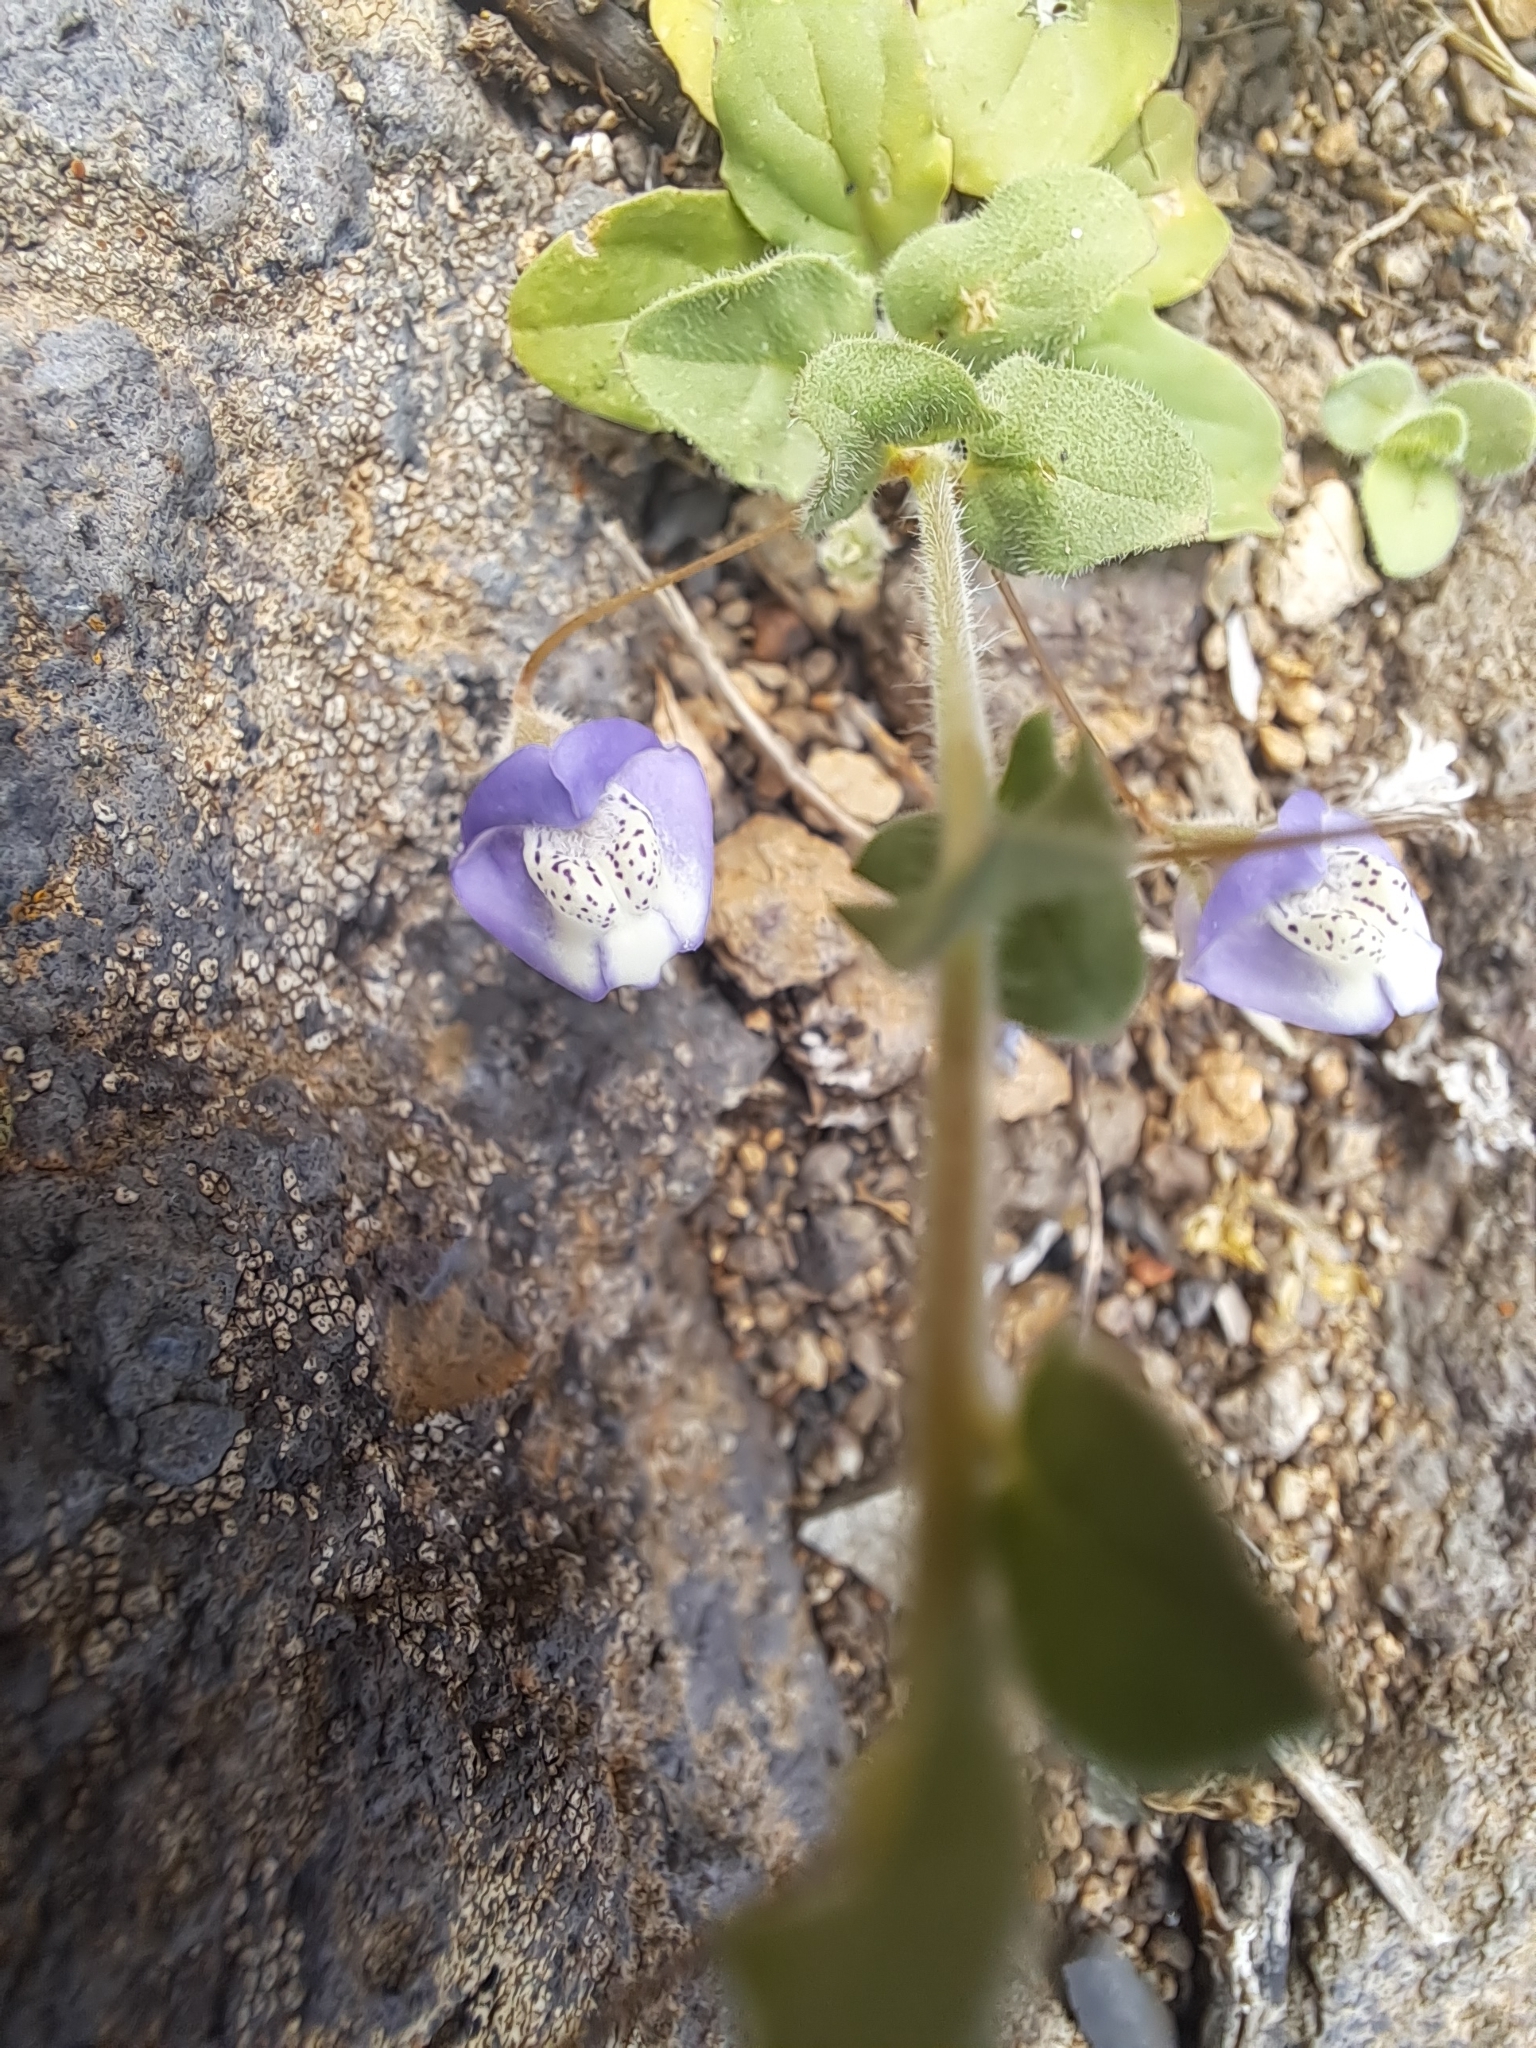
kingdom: Plantae
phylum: Tracheophyta
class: Magnoliopsida
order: Lamiales
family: Plantaginaceae
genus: Kickxia
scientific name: Kickxia commutata
